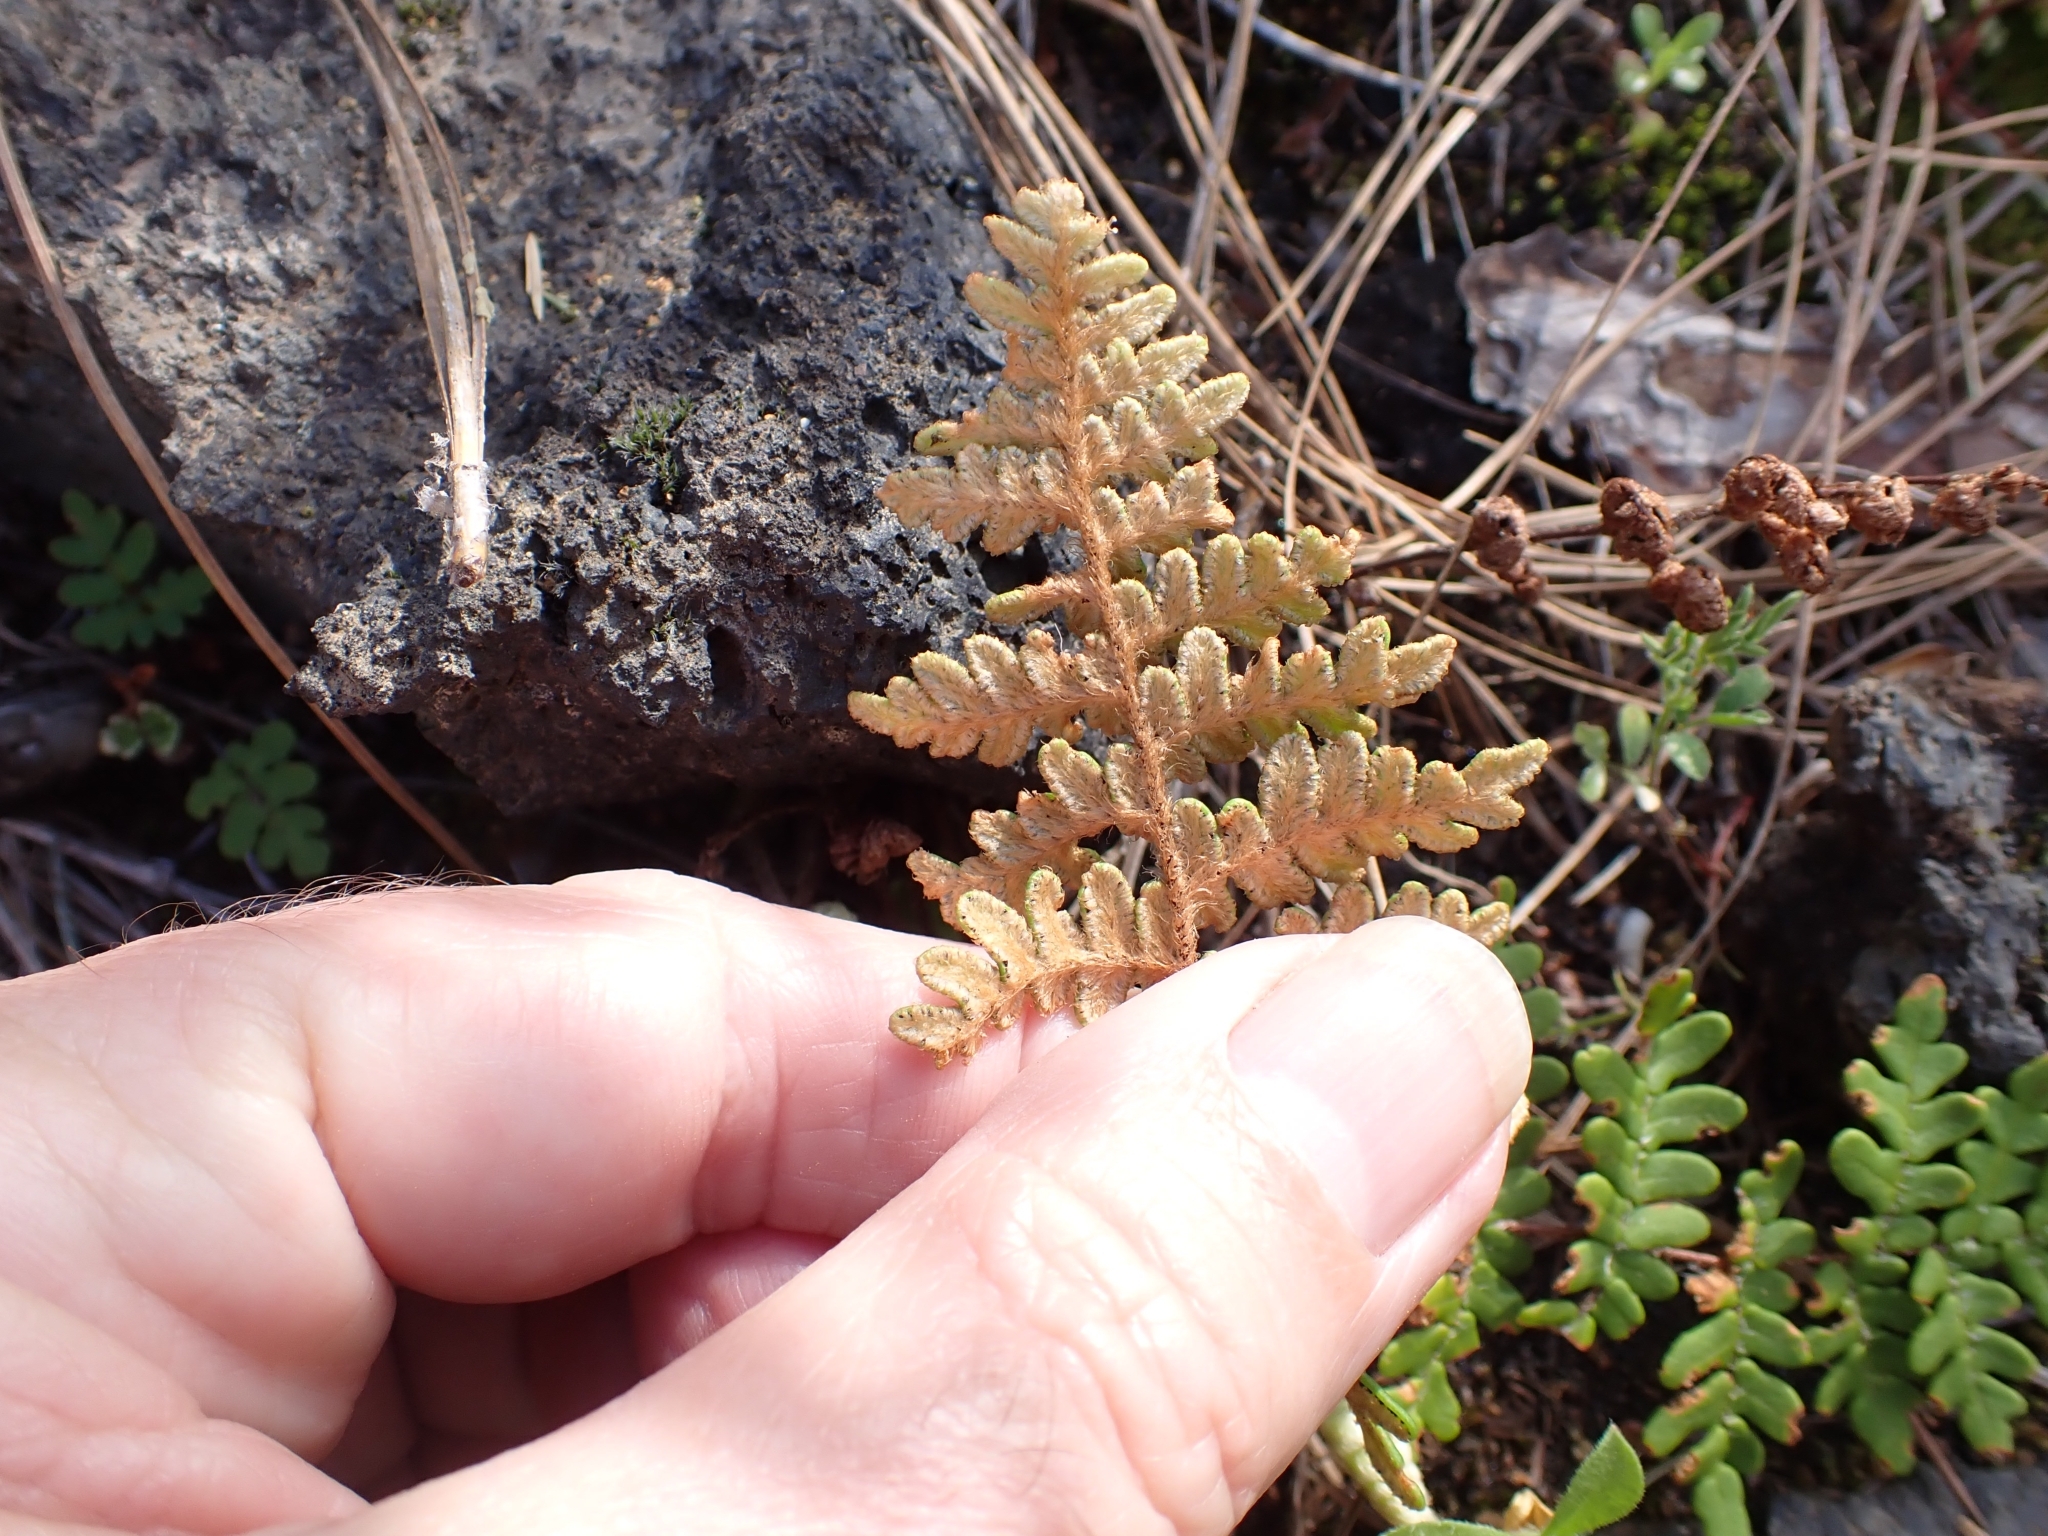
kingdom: Plantae
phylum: Tracheophyta
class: Polypodiopsida
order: Polypodiales
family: Pteridaceae
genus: Paragymnopteris
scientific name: Paragymnopteris marantae
